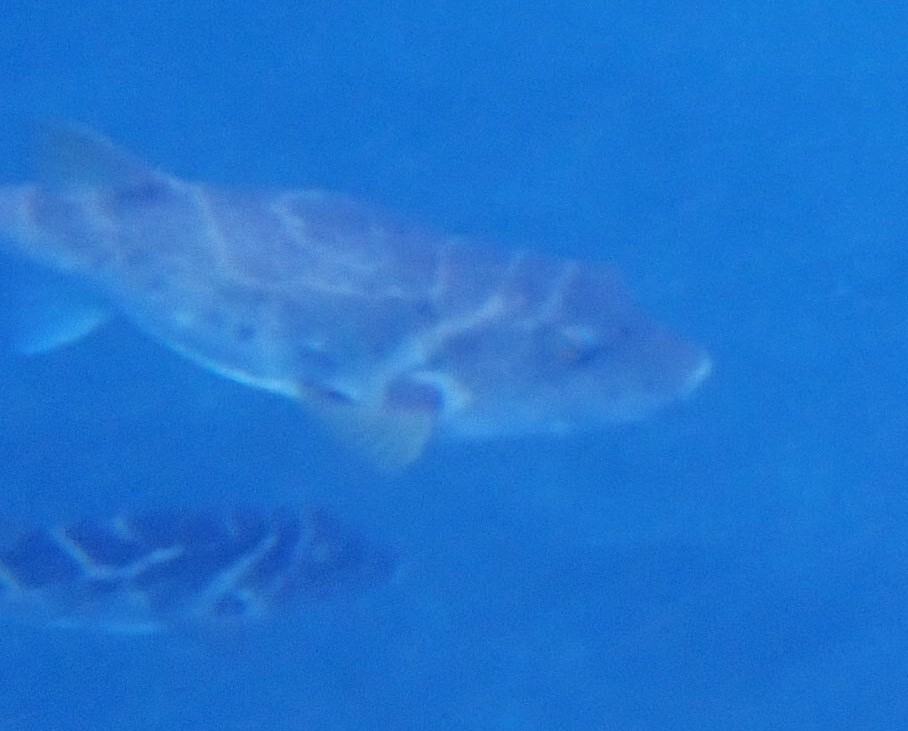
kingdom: Animalia
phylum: Chordata
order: Tetraodontiformes
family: Tetraodontidae
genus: Sphoeroides
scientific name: Sphoeroides annulatus
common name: Bullseye puffer
